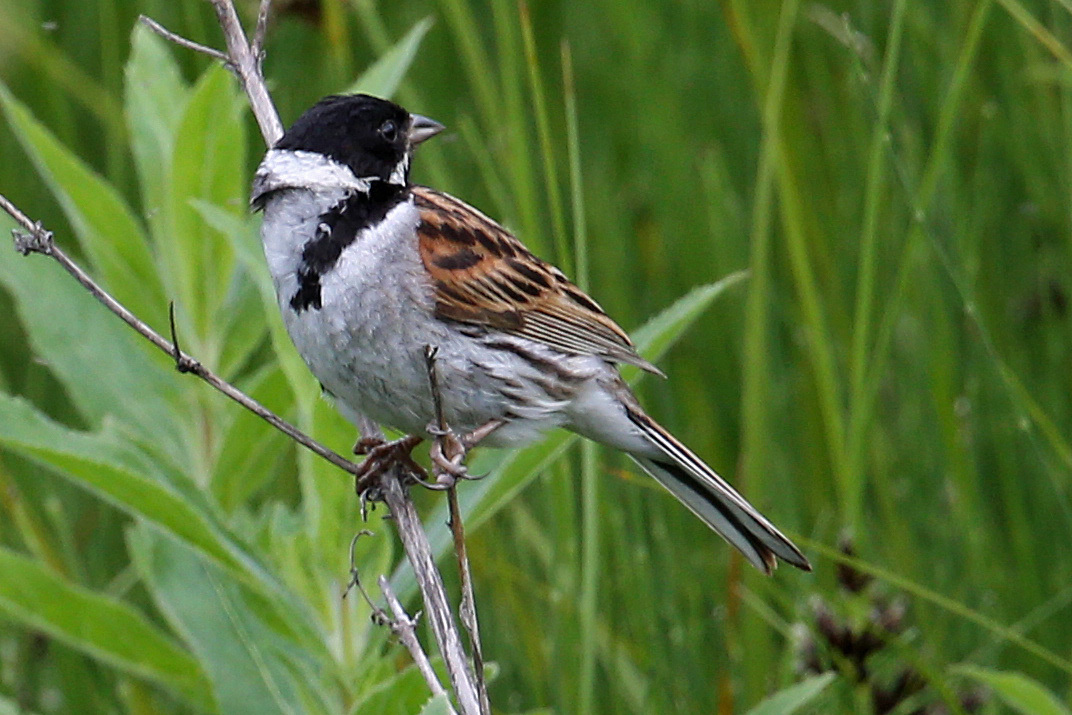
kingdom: Animalia
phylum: Chordata
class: Aves
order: Passeriformes
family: Emberizidae
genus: Emberiza
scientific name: Emberiza schoeniclus
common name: Reed bunting
